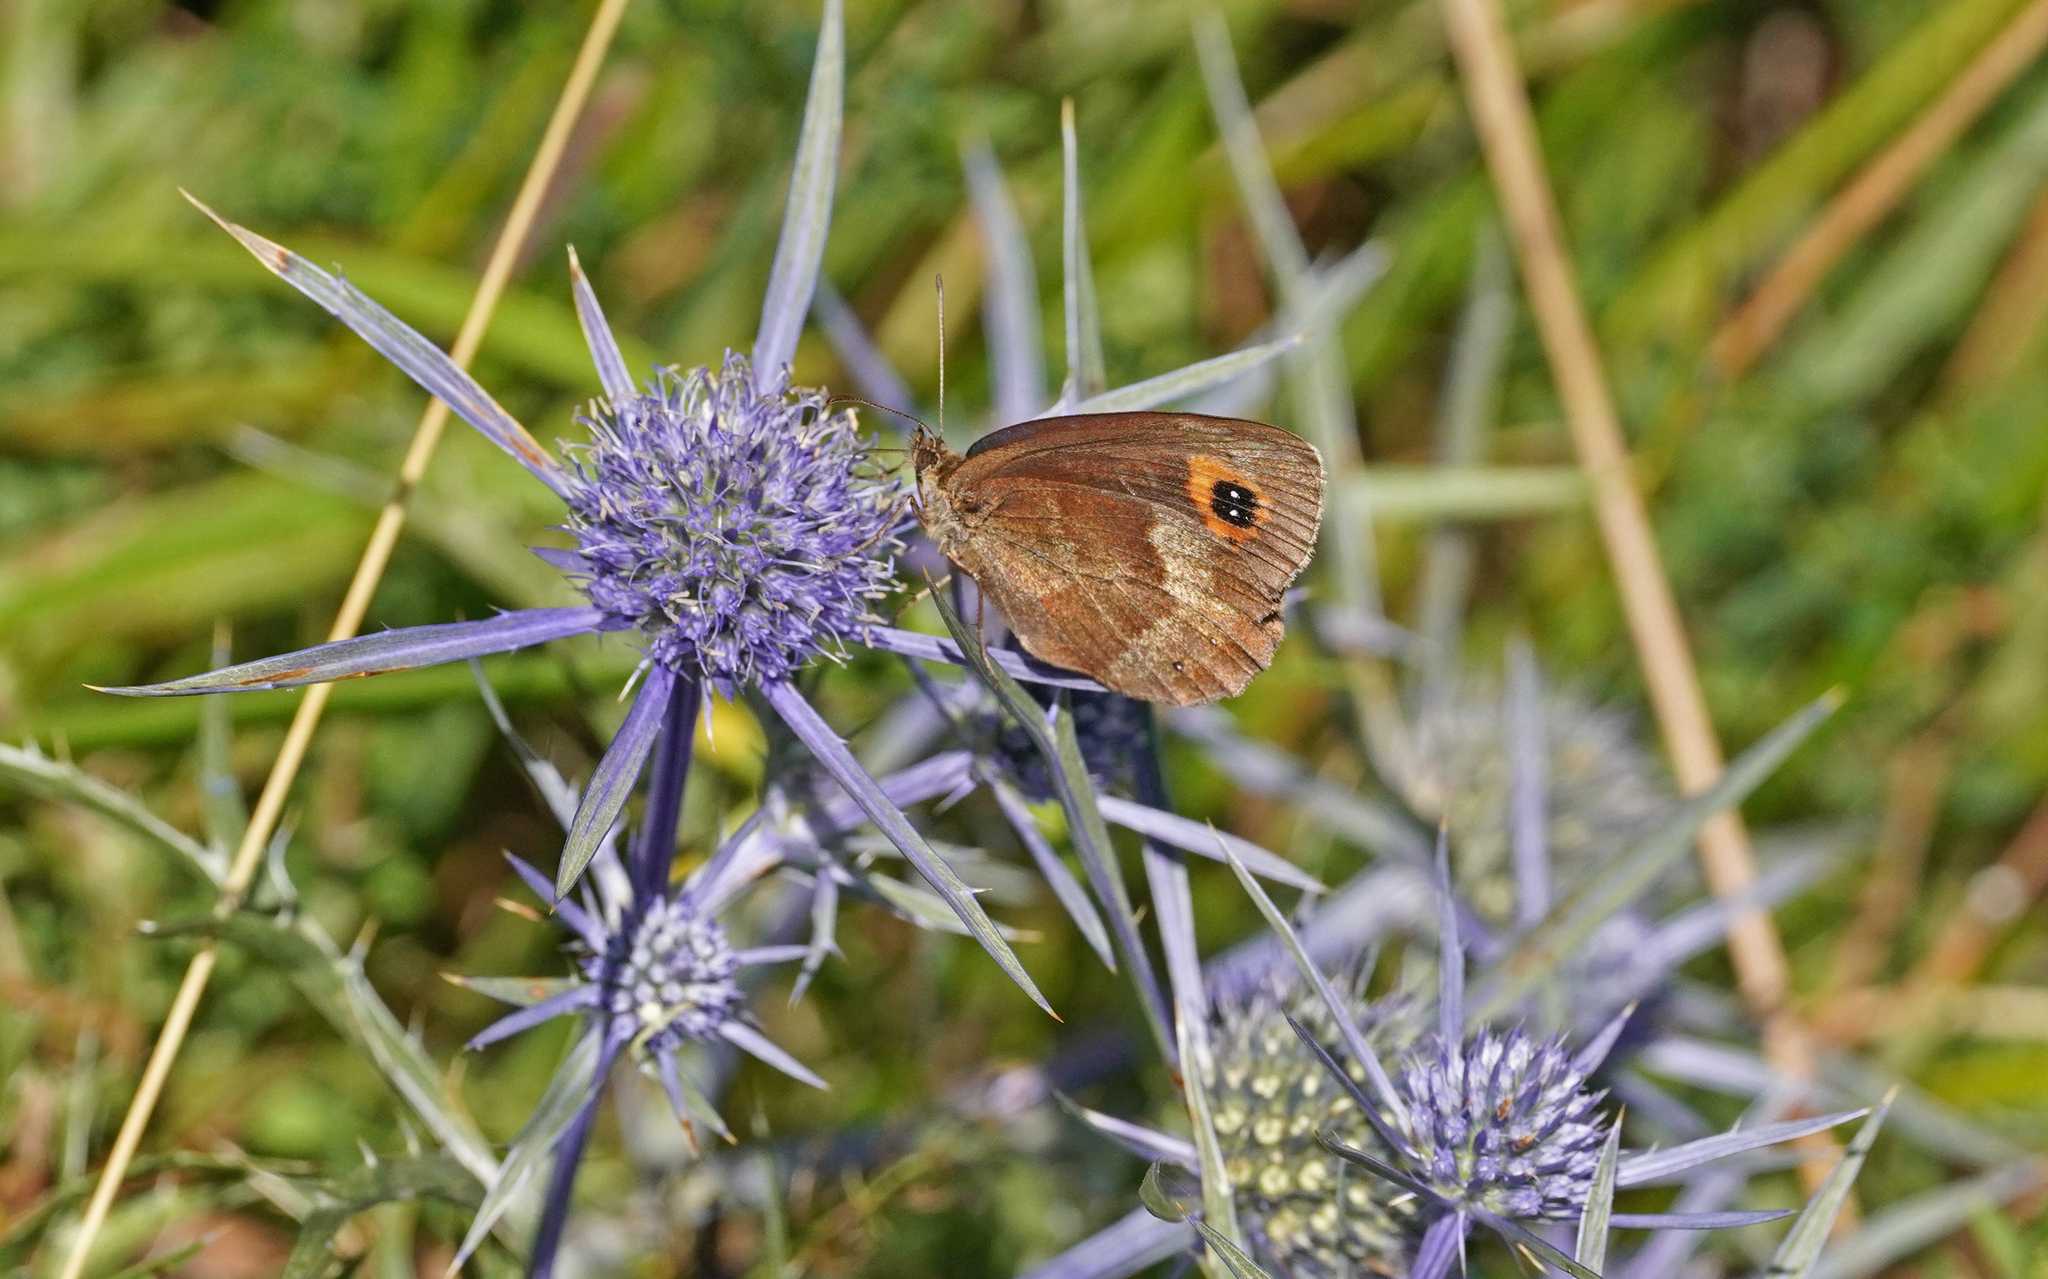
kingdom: Animalia
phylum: Arthropoda
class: Insecta
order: Lepidoptera
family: Nymphalidae
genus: Erebia
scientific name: Erebia aethiops
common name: Scotch argus
